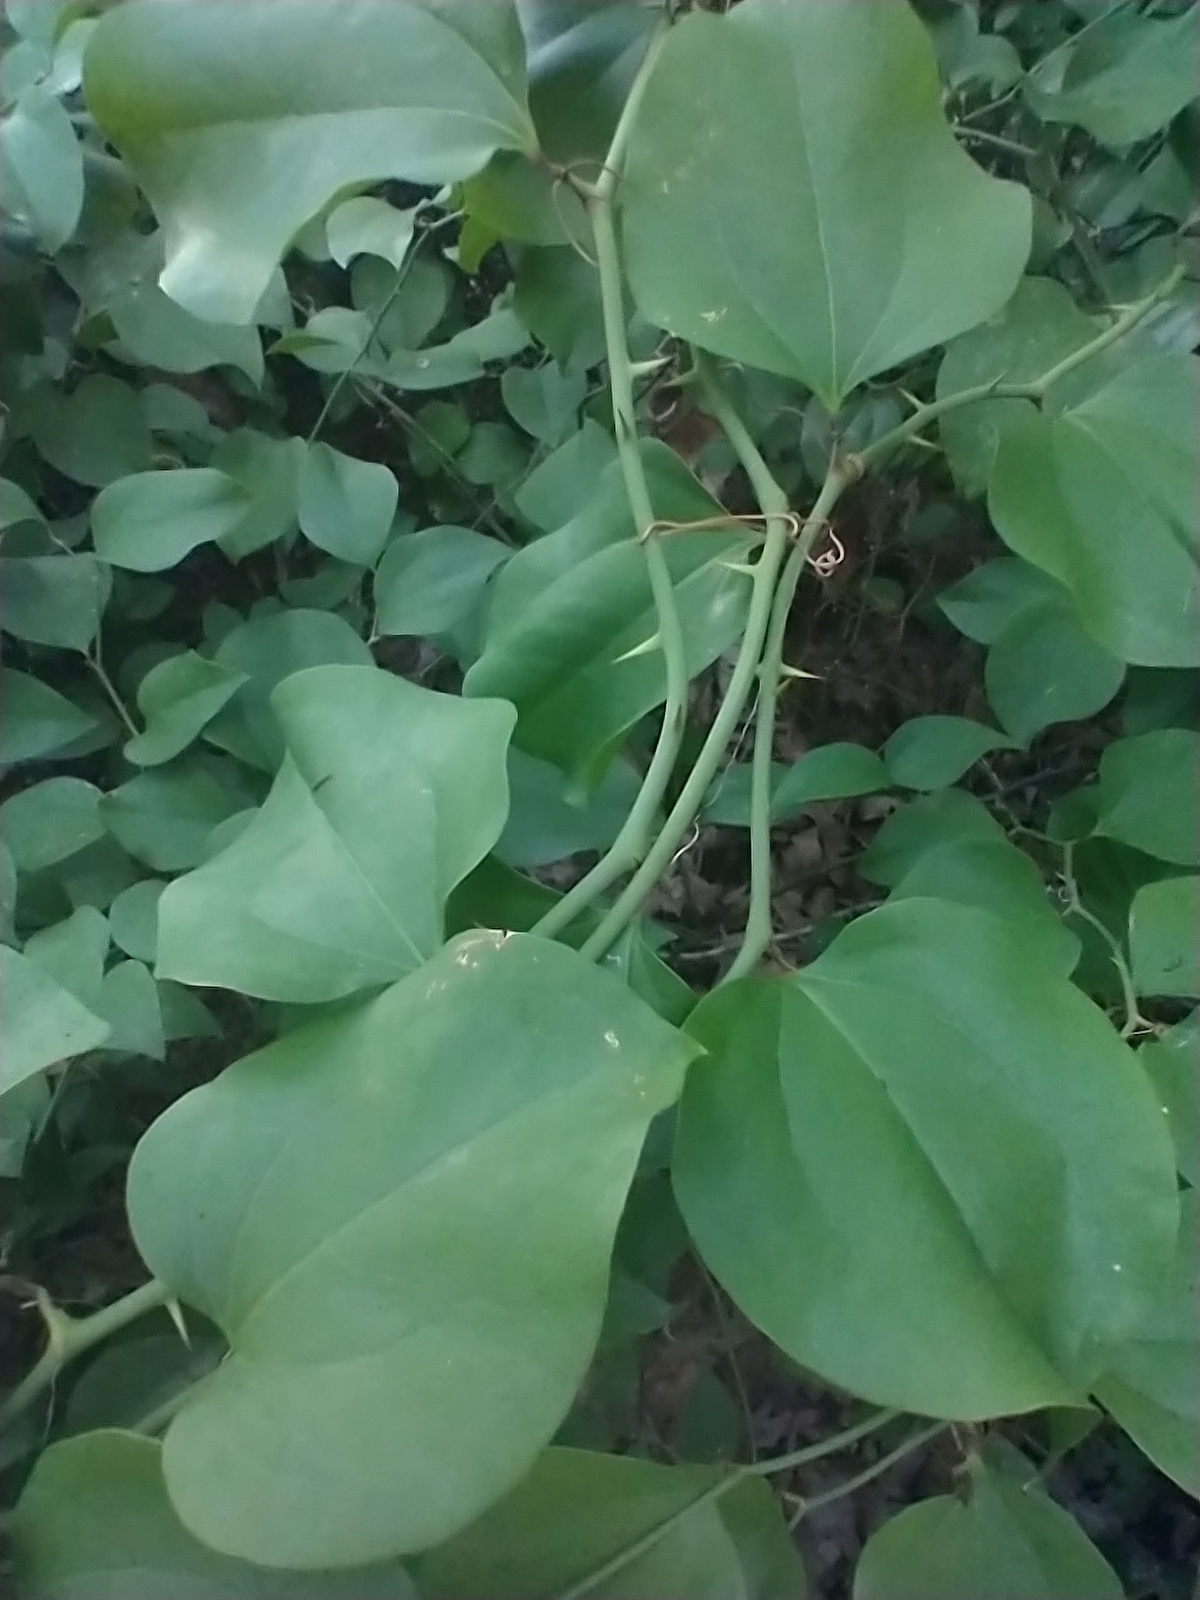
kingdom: Plantae
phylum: Tracheophyta
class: Liliopsida
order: Liliales
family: Smilacaceae
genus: Smilax
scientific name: Smilax rotundifolia
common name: Bullbriar
